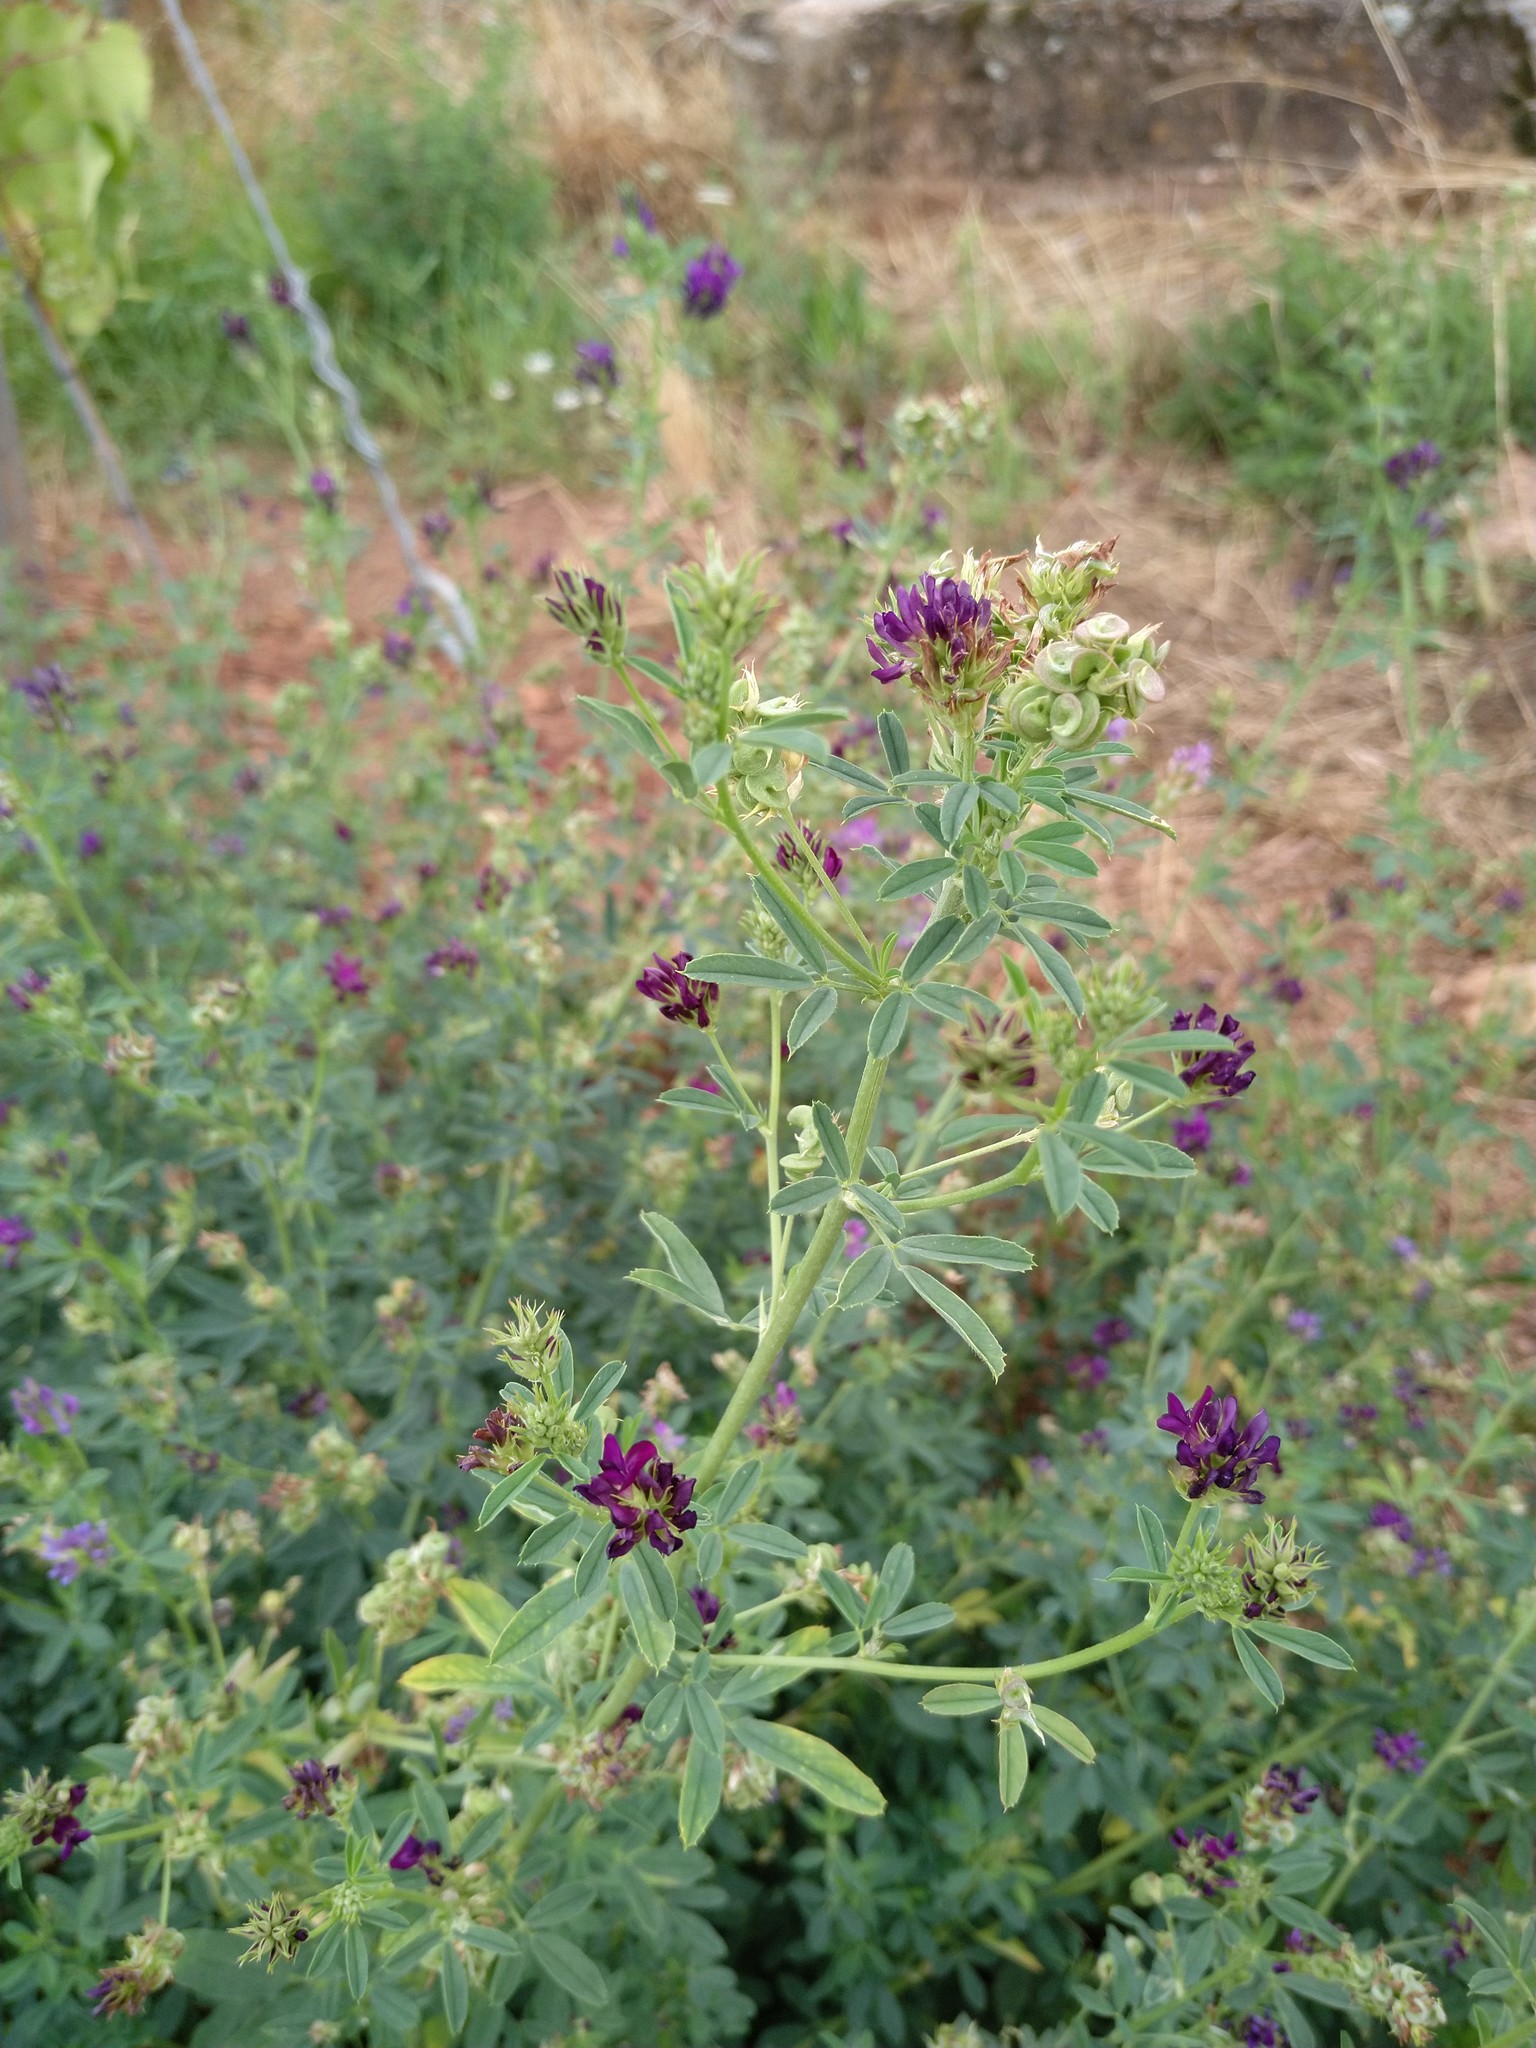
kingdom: Plantae
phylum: Tracheophyta
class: Magnoliopsida
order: Fabales
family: Fabaceae
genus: Medicago
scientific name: Medicago sativa
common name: Alfalfa
